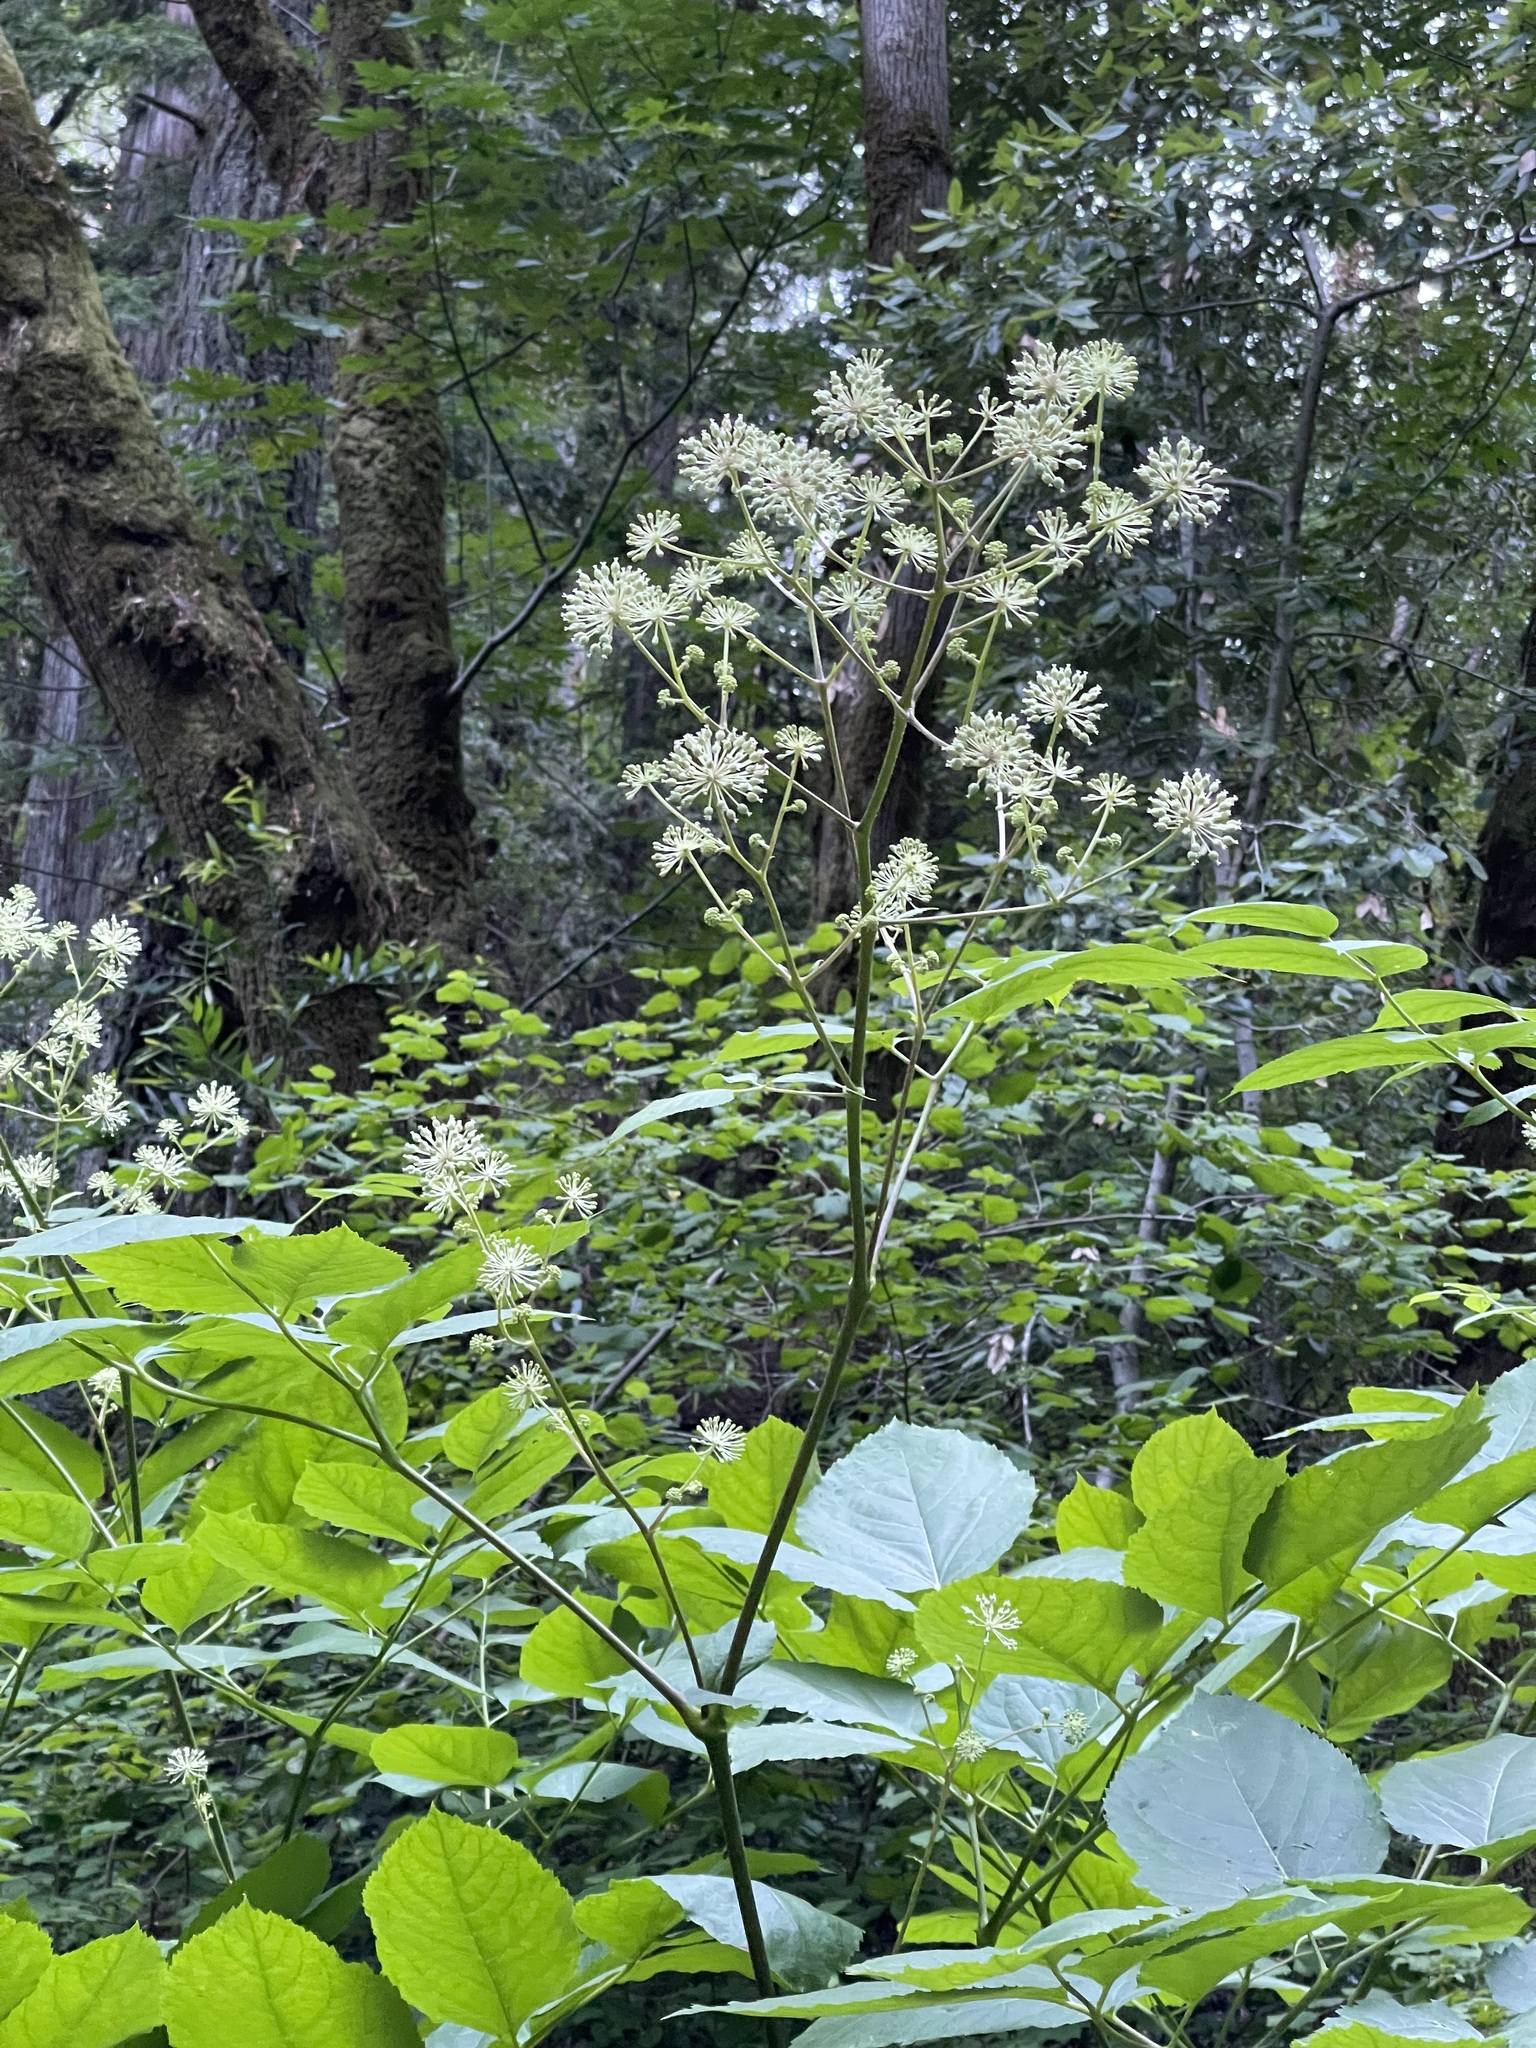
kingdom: Plantae
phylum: Tracheophyta
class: Magnoliopsida
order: Apiales
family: Araliaceae
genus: Aralia
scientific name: Aralia californica
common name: California-ginseng
